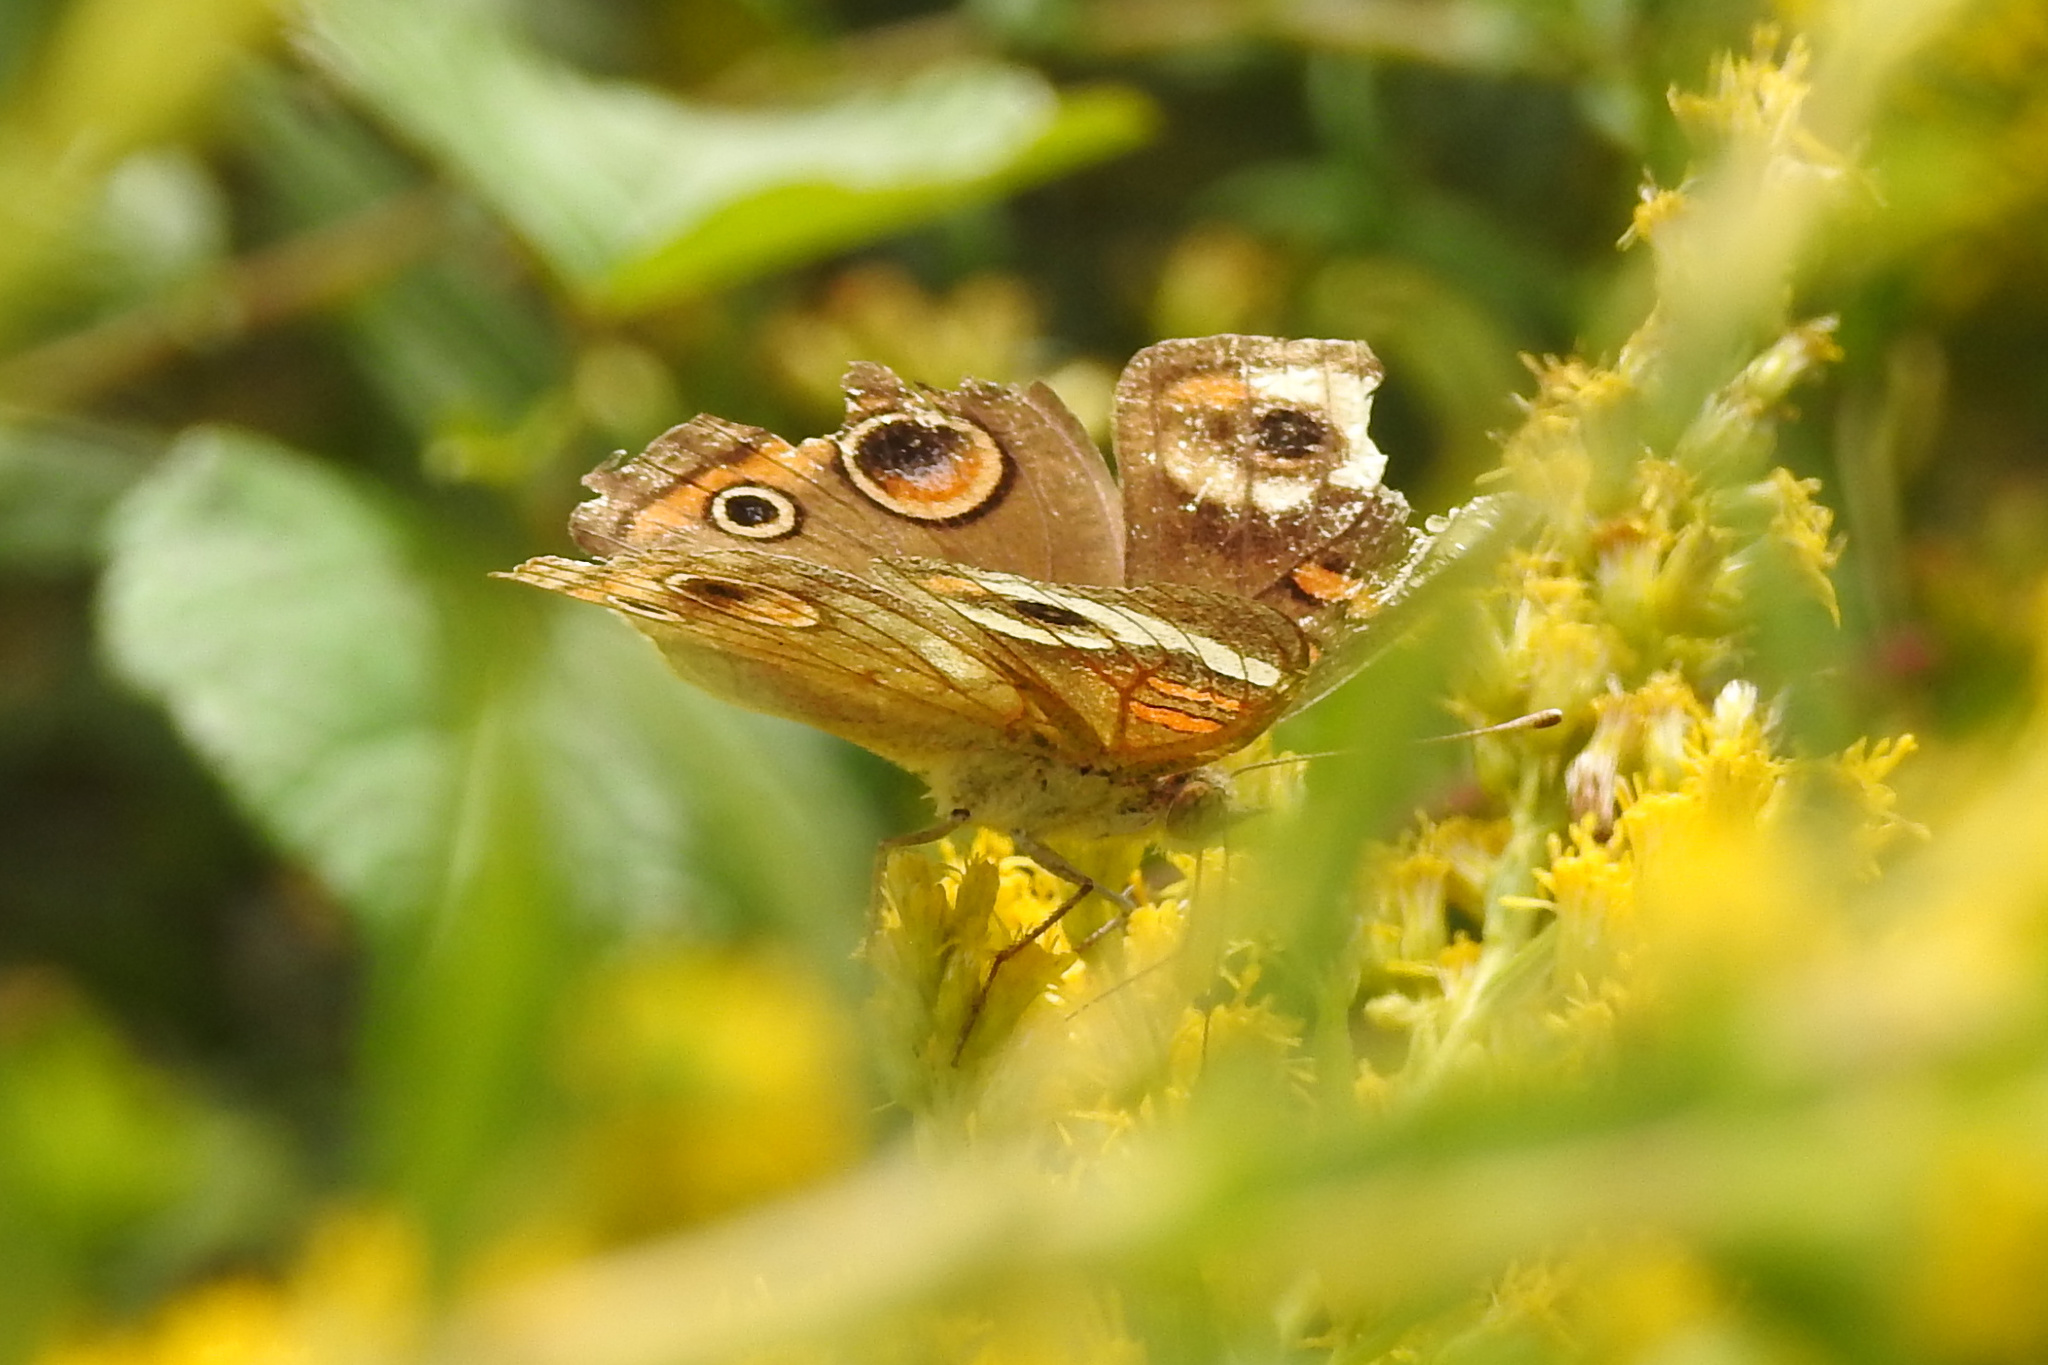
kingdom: Animalia
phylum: Arthropoda
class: Insecta
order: Lepidoptera
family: Nymphalidae
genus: Junonia
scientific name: Junonia coenia
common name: Common buckeye
